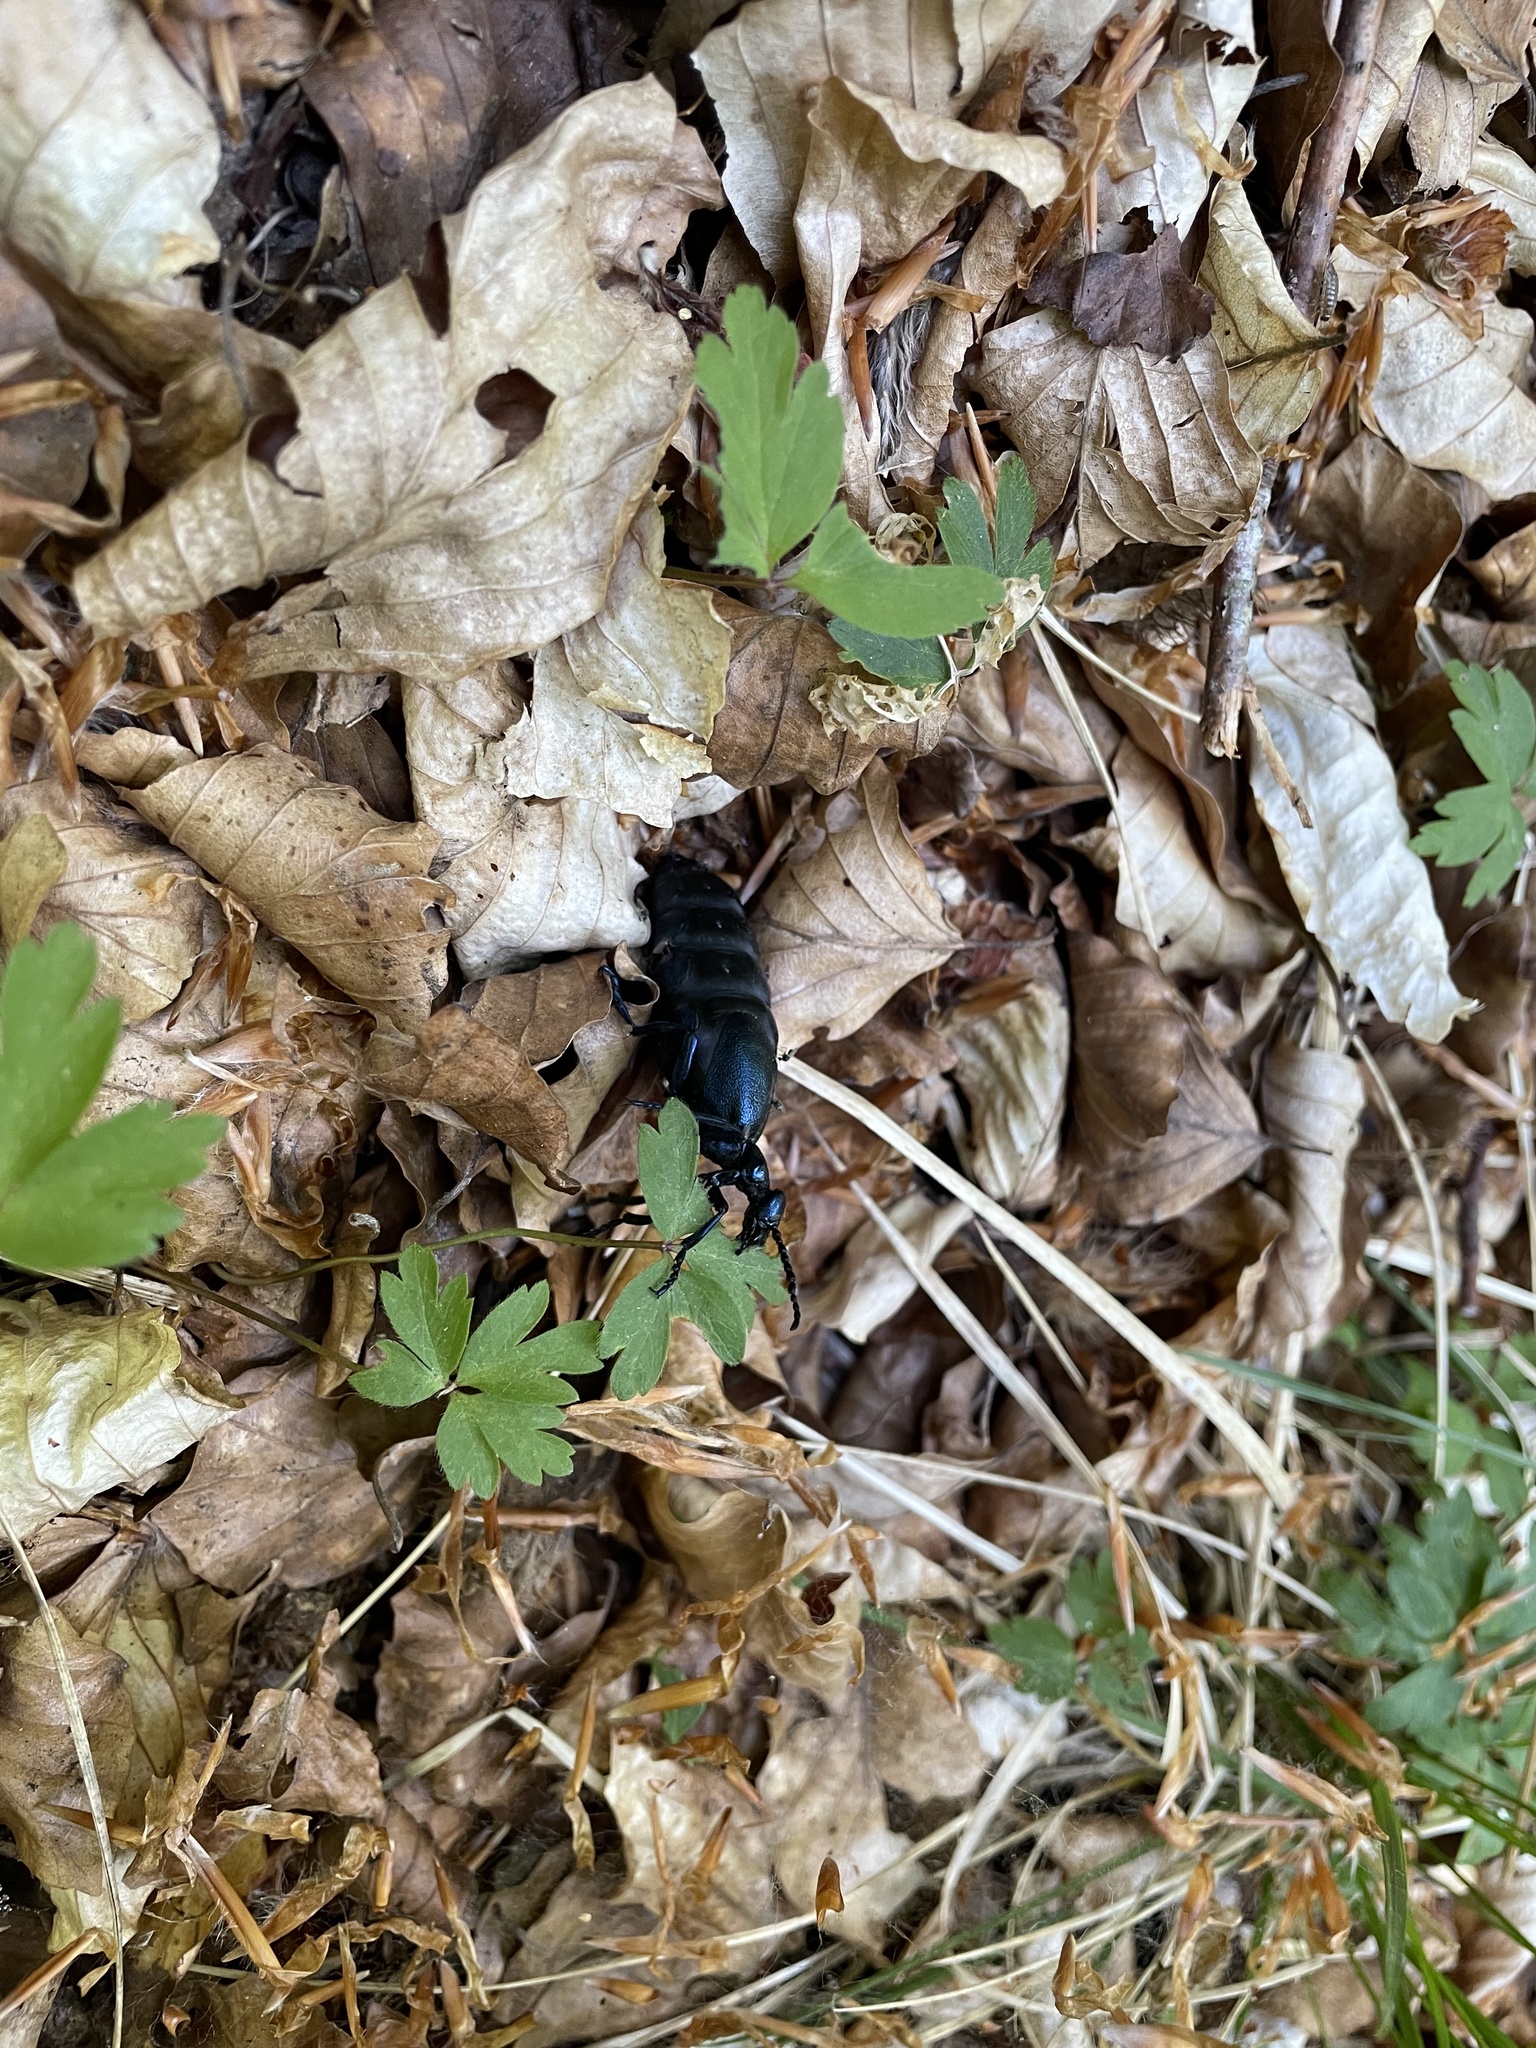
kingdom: Animalia
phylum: Arthropoda
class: Insecta
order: Coleoptera
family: Meloidae
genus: Meloe
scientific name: Meloe violaceus
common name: Violet oil-beetle
